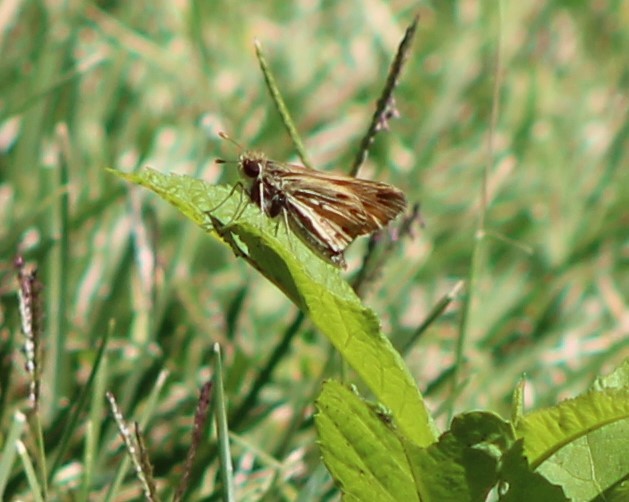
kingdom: Animalia
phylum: Arthropoda
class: Insecta
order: Lepidoptera
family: Hesperiidae
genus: Hylephila
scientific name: Hylephila phyleus
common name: Fiery skipper
